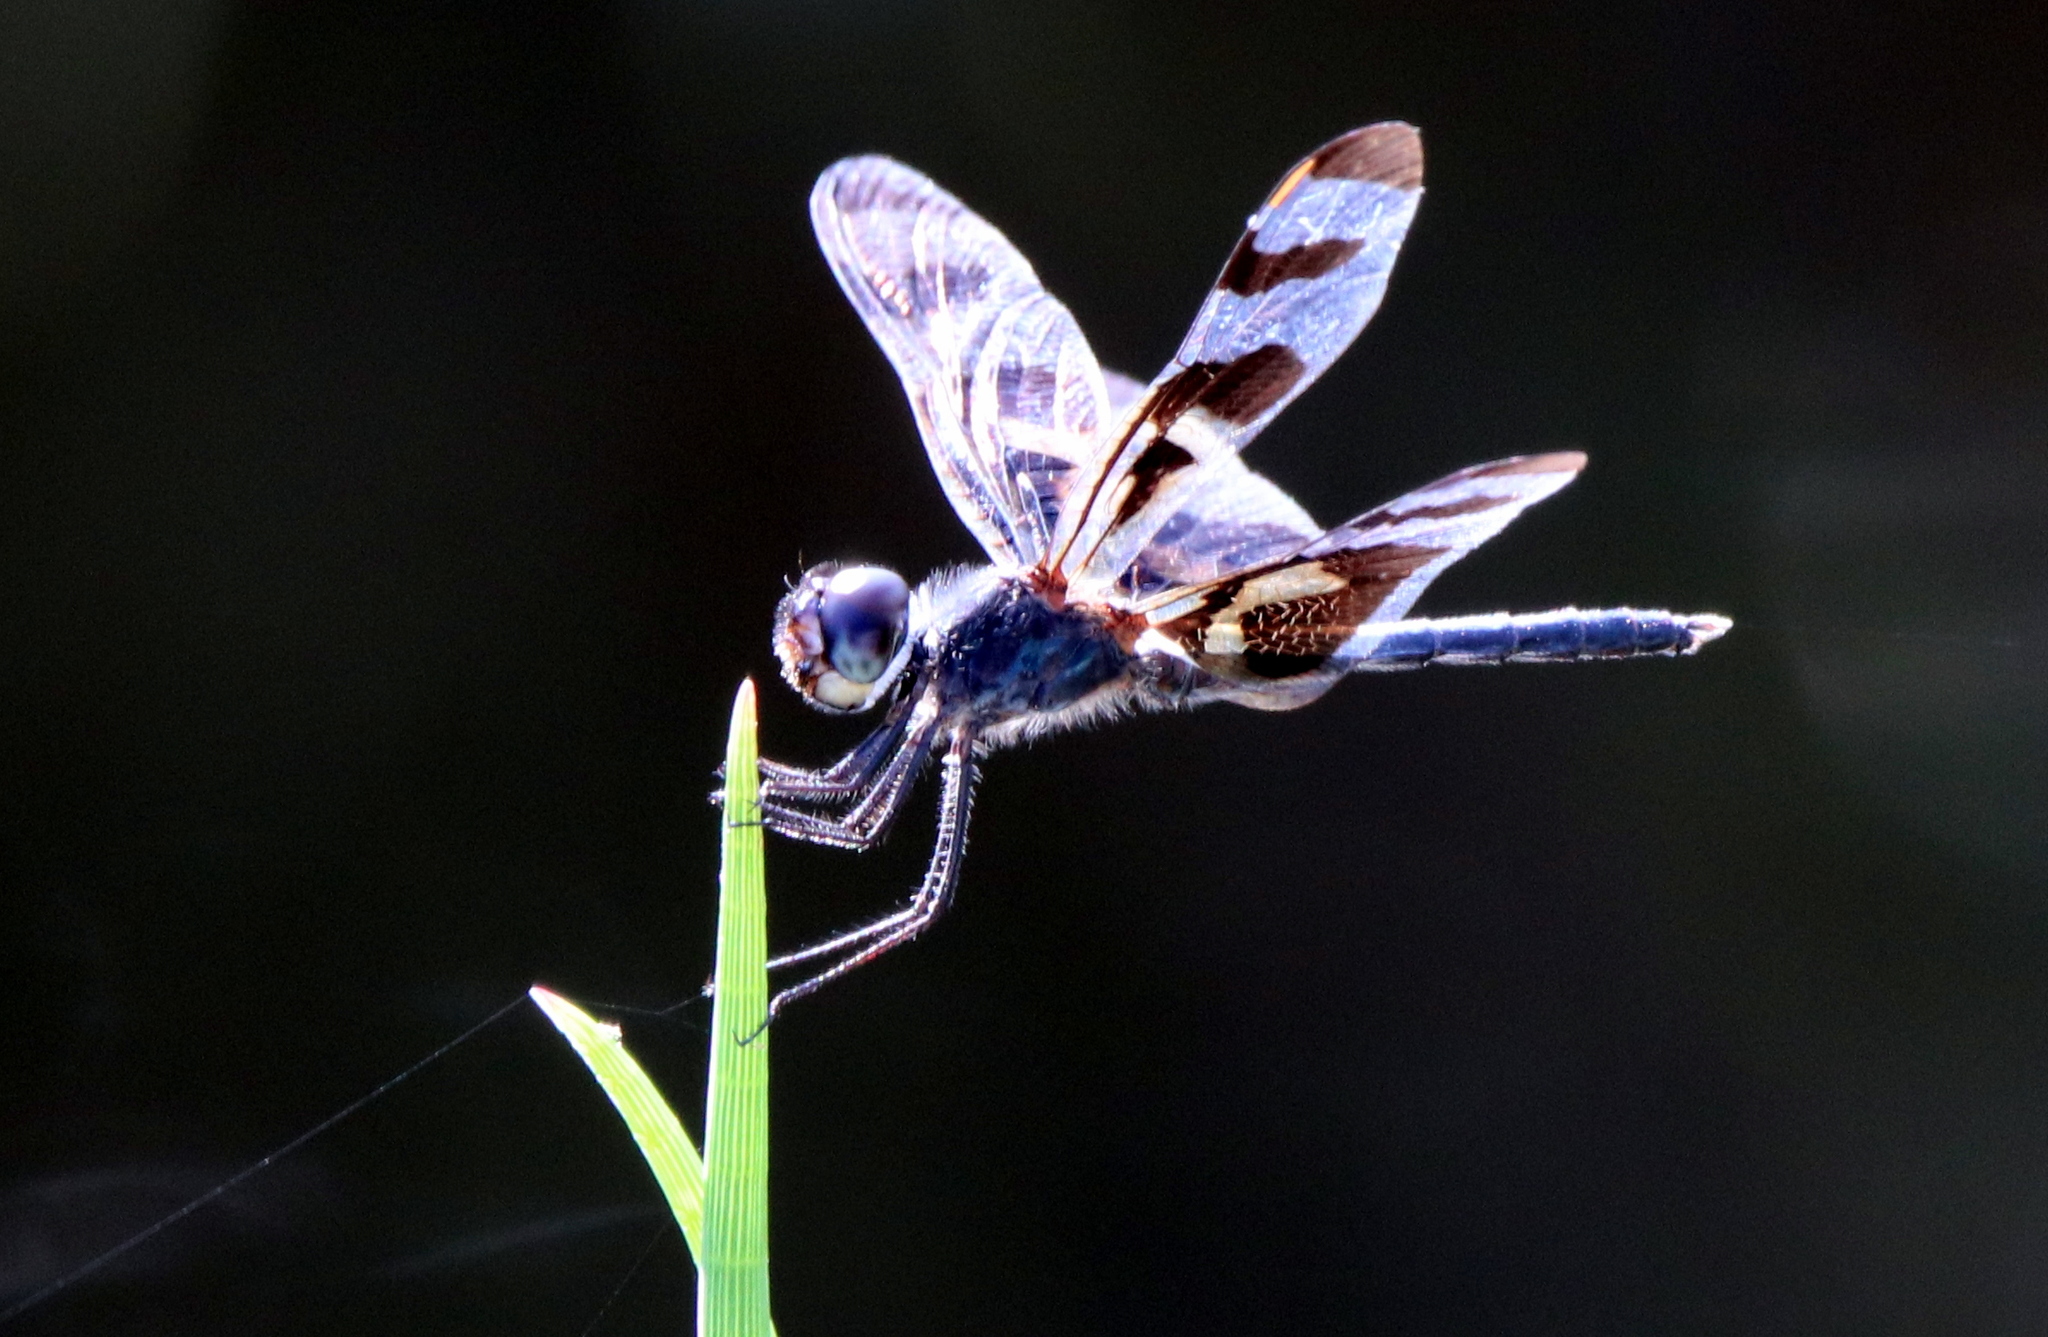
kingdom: Animalia
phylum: Arthropoda
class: Insecta
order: Odonata
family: Libellulidae
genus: Celithemis
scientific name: Celithemis fasciata
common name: Banded pennant
